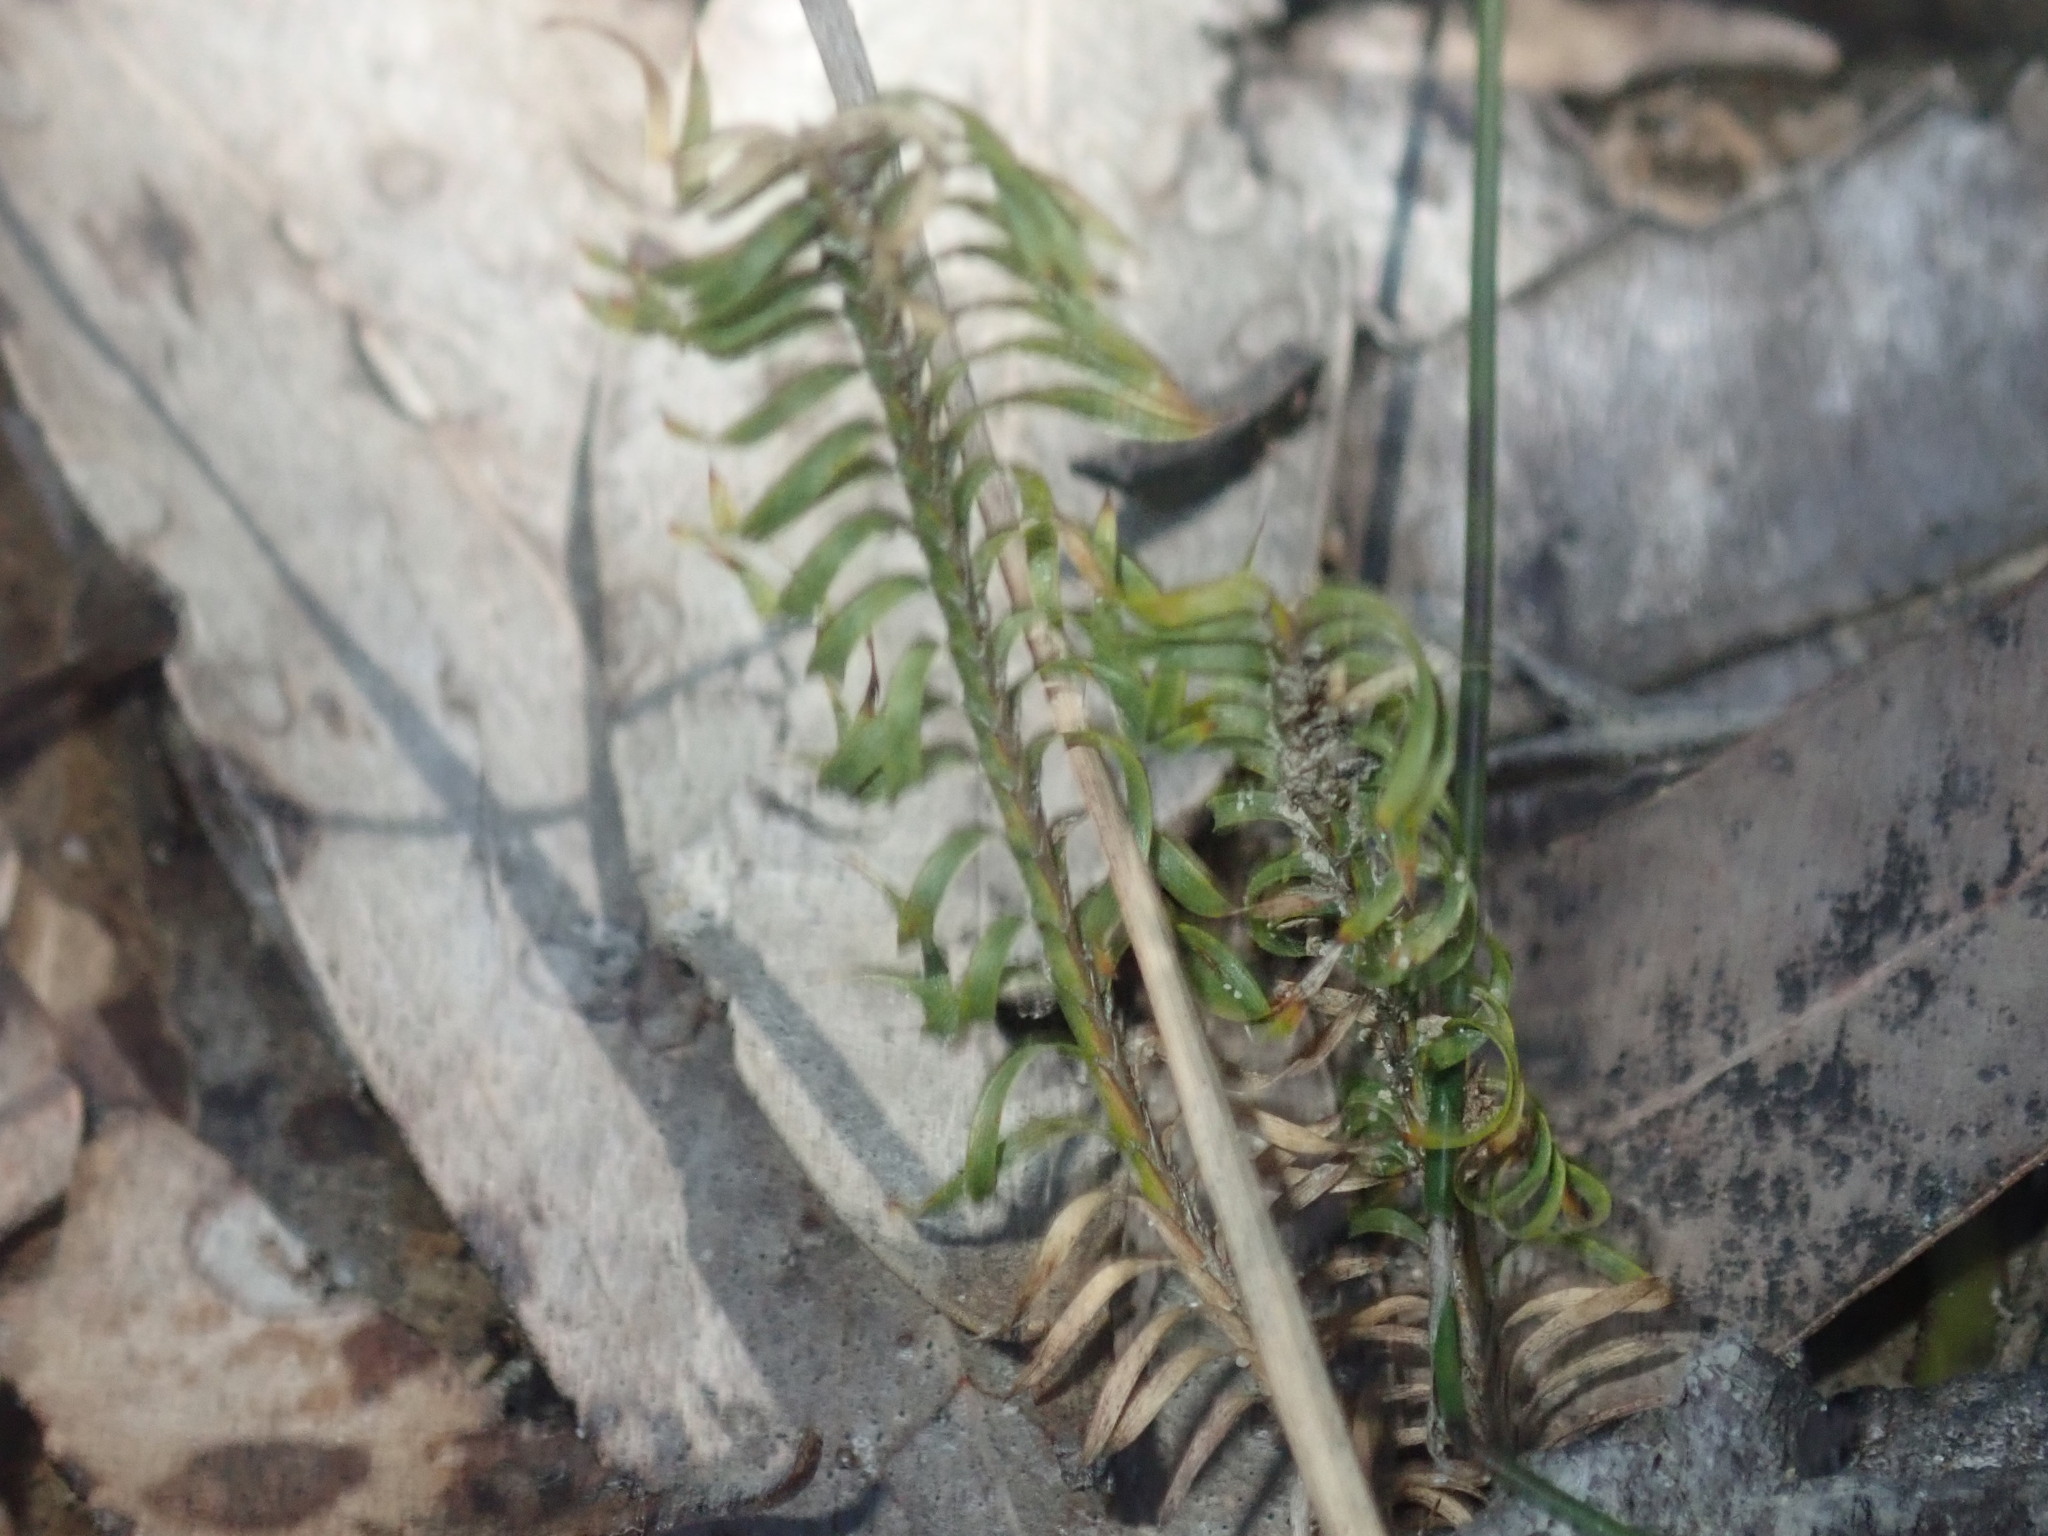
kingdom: Plantae
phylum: Tracheophyta
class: Liliopsida
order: Asparagales
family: Asparagaceae
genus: Lomandra
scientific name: Lomandra obliqua
